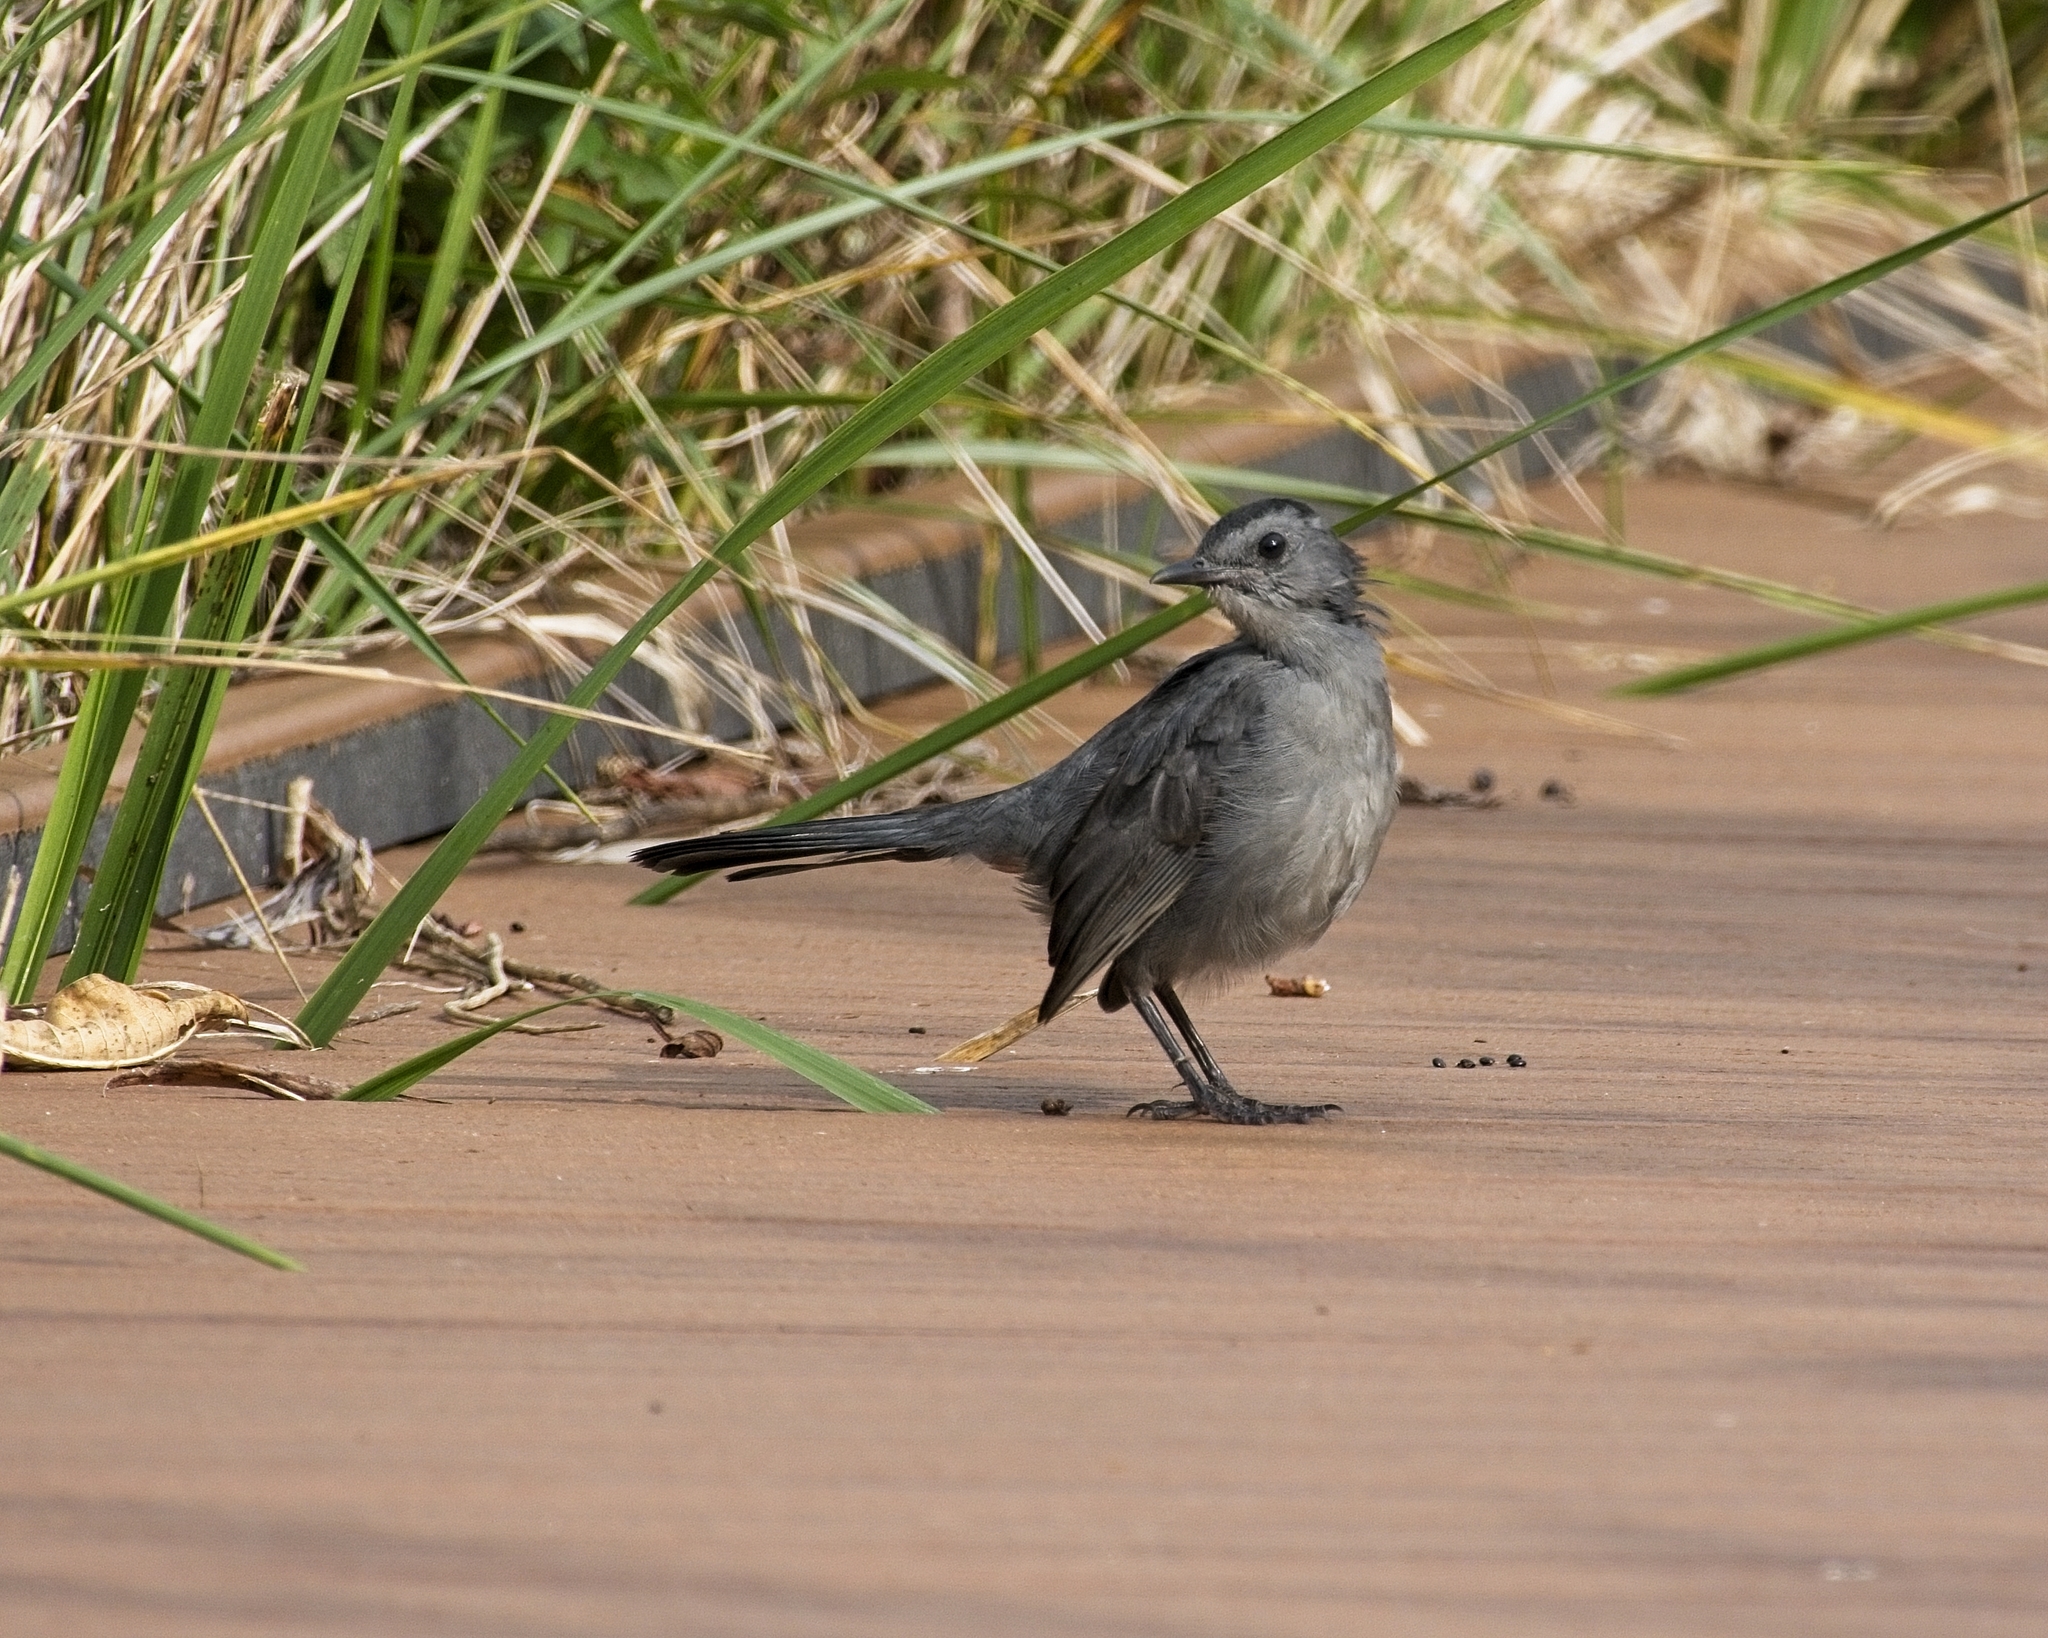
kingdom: Animalia
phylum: Chordata
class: Aves
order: Passeriformes
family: Mimidae
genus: Dumetella
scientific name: Dumetella carolinensis
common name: Gray catbird
